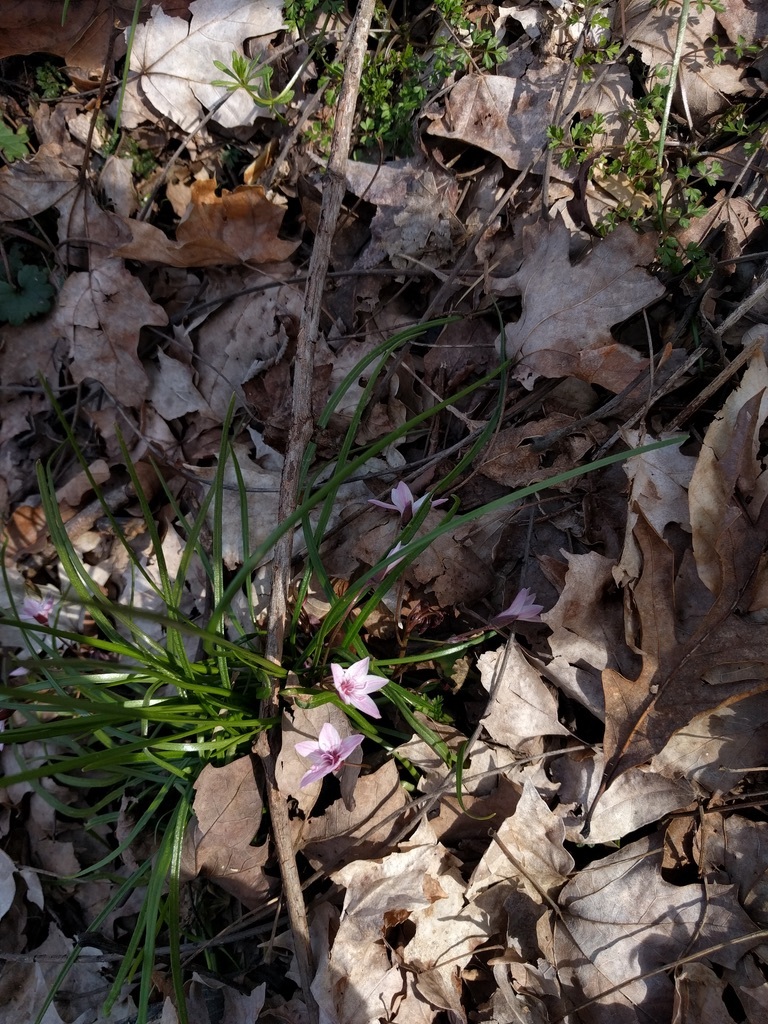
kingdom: Plantae
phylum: Tracheophyta
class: Magnoliopsida
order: Caryophyllales
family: Montiaceae
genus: Claytonia
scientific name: Claytonia virginica
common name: Virginia springbeauty
